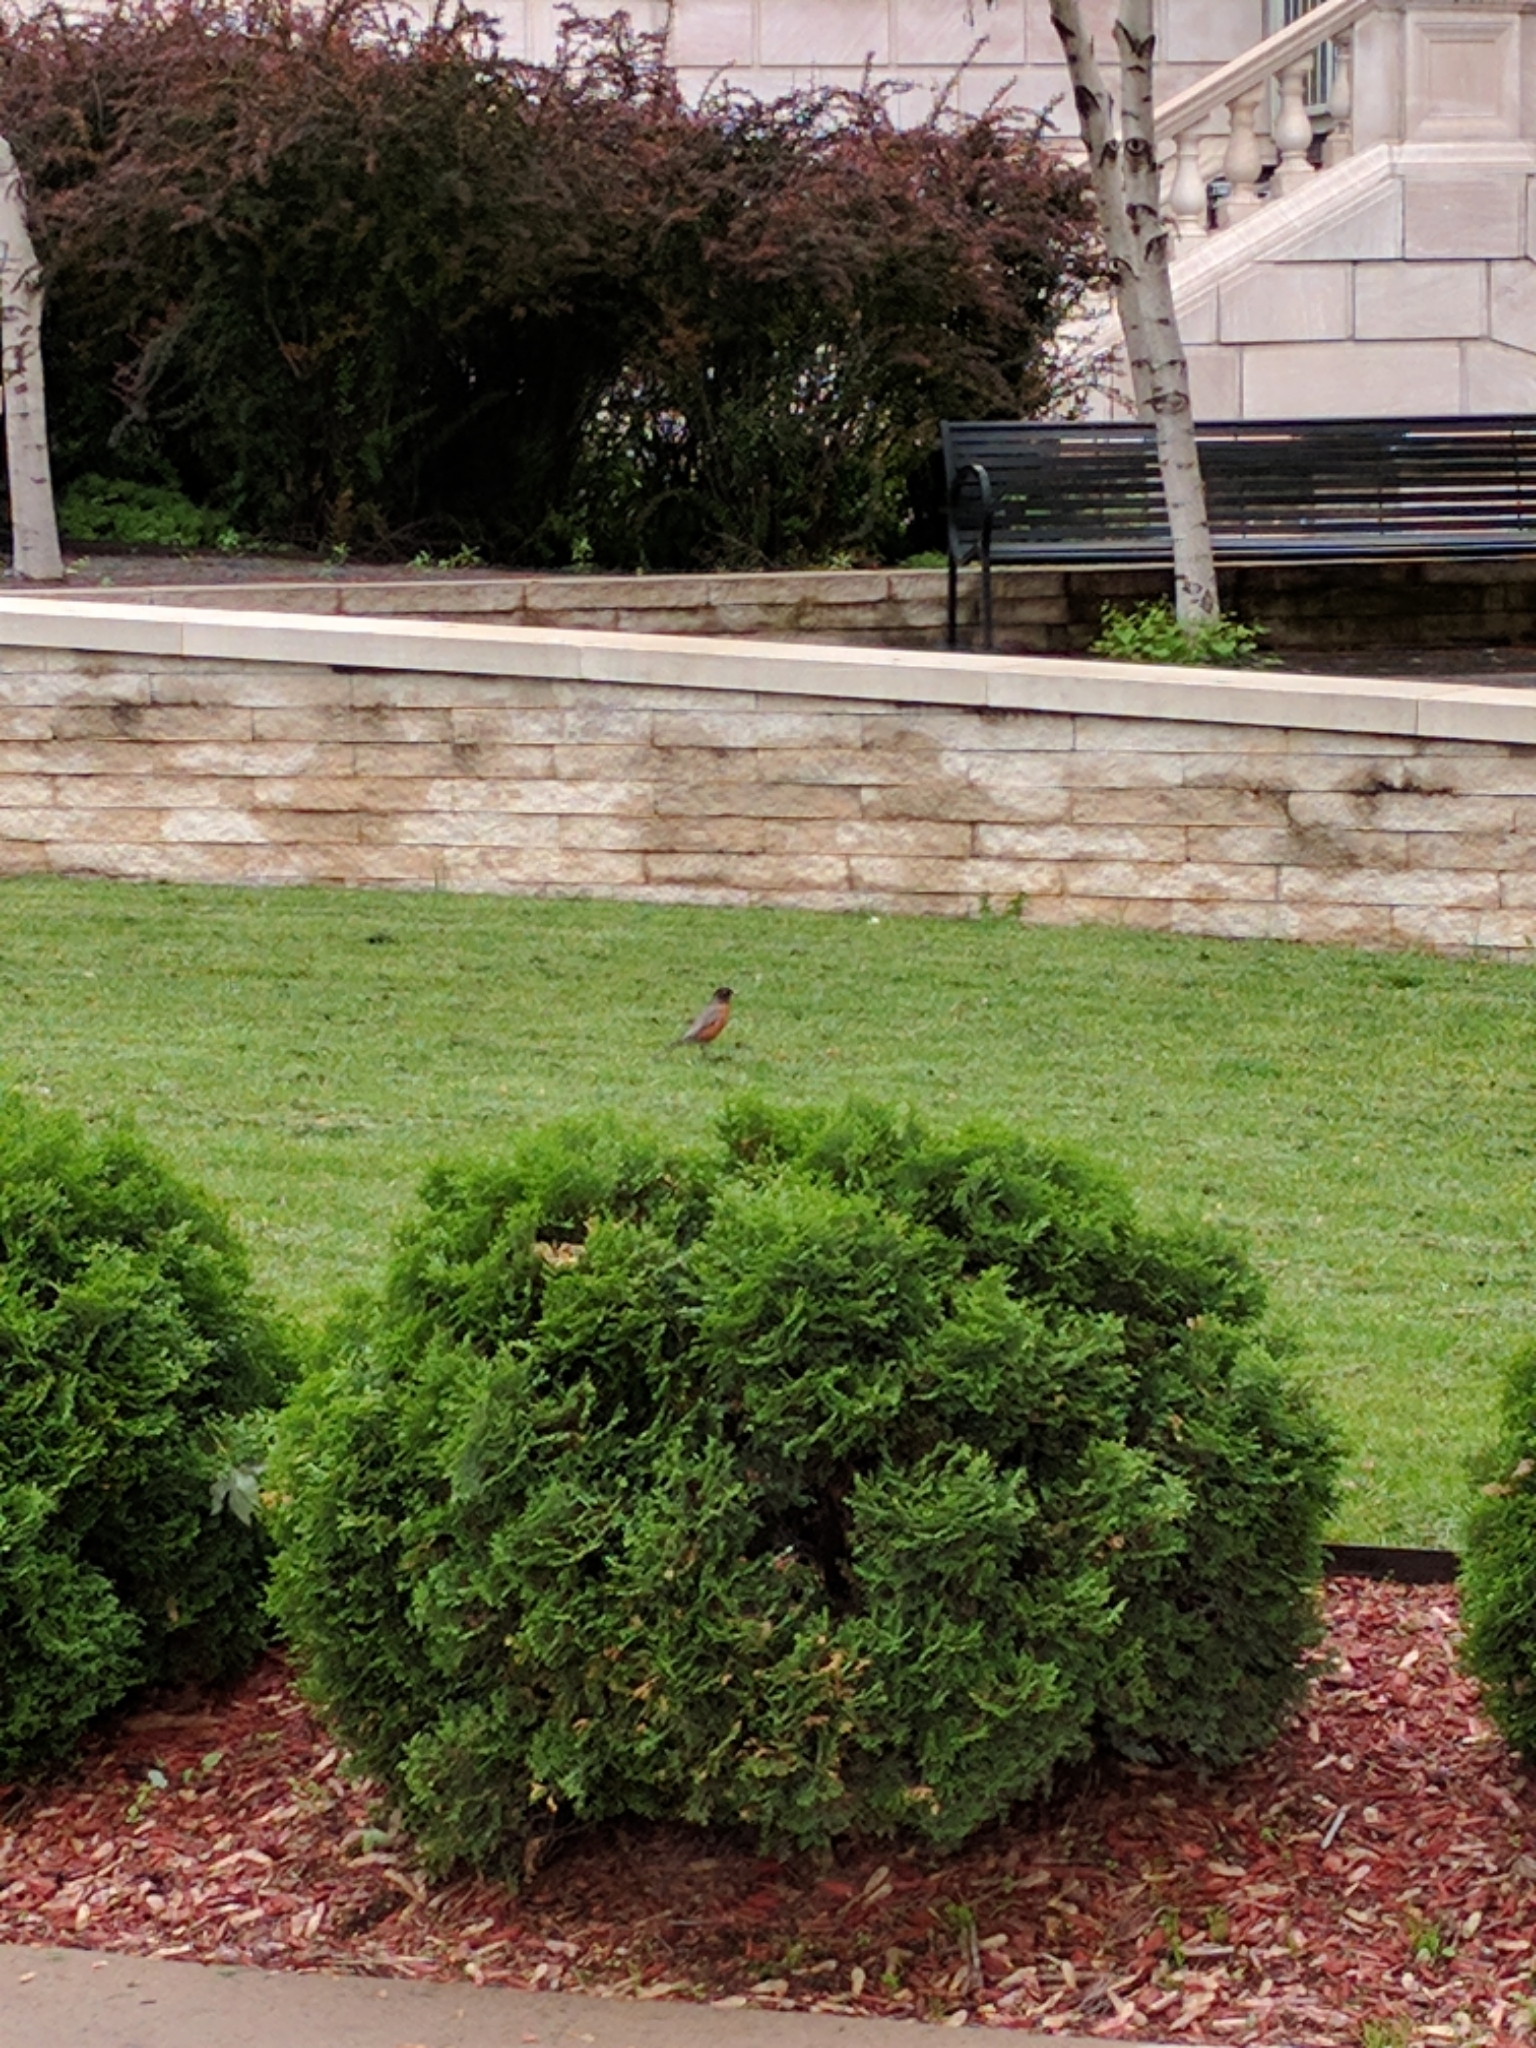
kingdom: Animalia
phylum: Chordata
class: Aves
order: Passeriformes
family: Turdidae
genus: Turdus
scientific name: Turdus migratorius
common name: American robin
